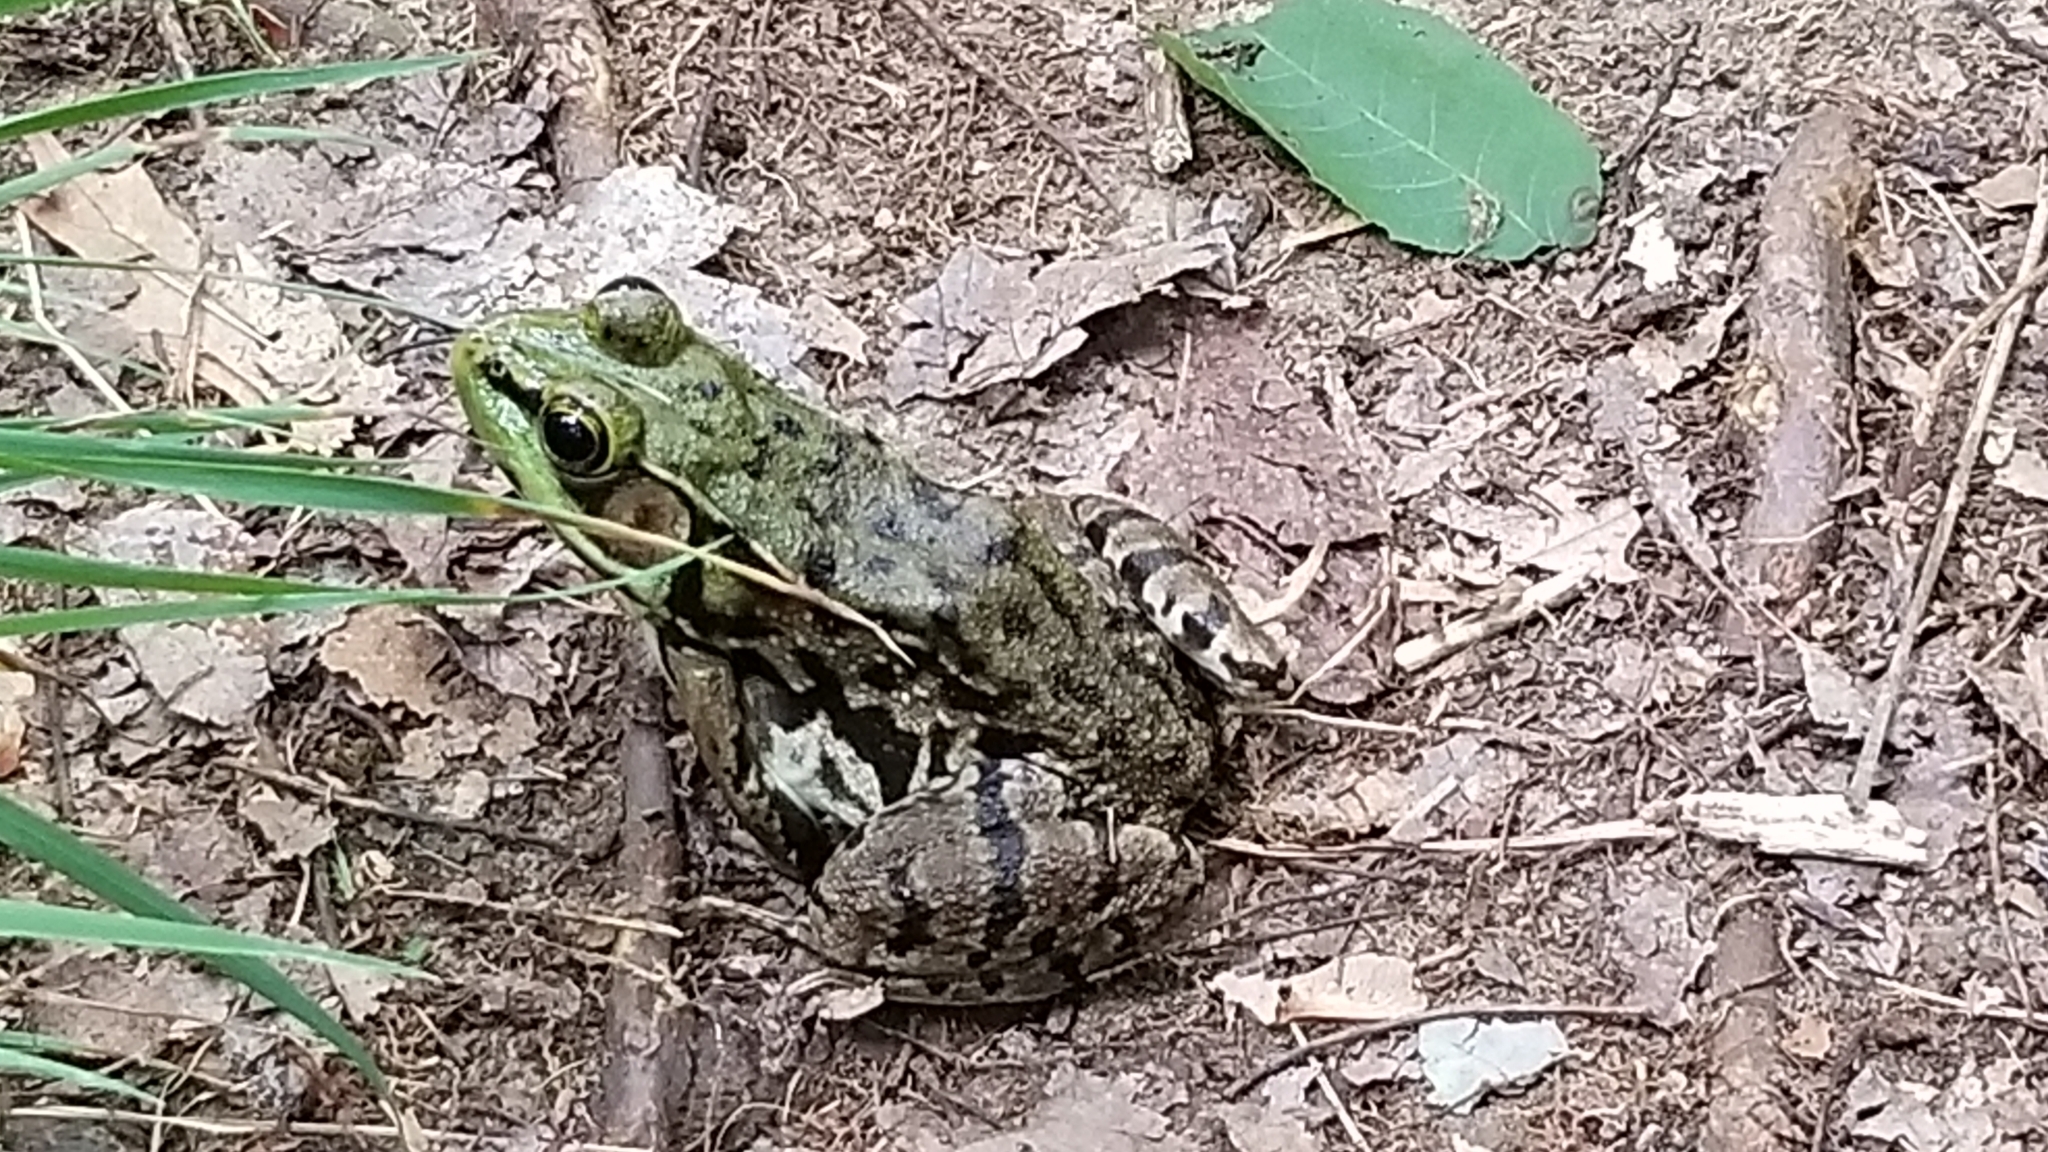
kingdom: Animalia
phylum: Chordata
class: Amphibia
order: Anura
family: Ranidae
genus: Lithobates
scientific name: Lithobates clamitans
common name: Green frog
